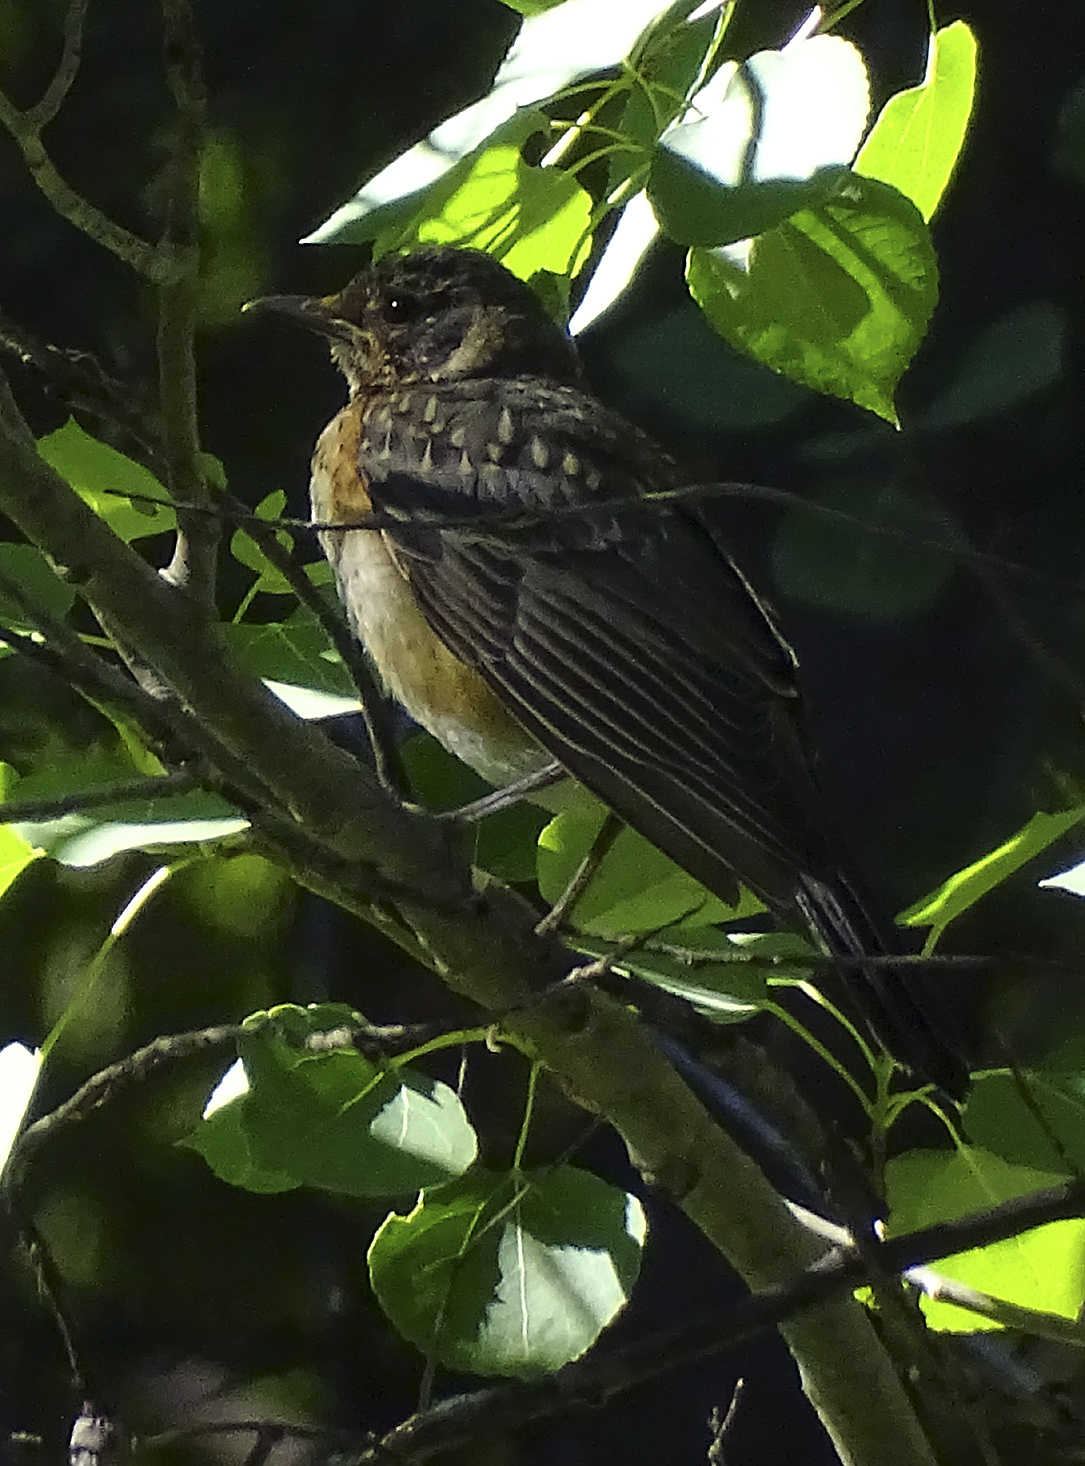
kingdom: Animalia
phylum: Chordata
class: Aves
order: Passeriformes
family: Turdidae
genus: Turdus
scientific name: Turdus migratorius
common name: American robin
